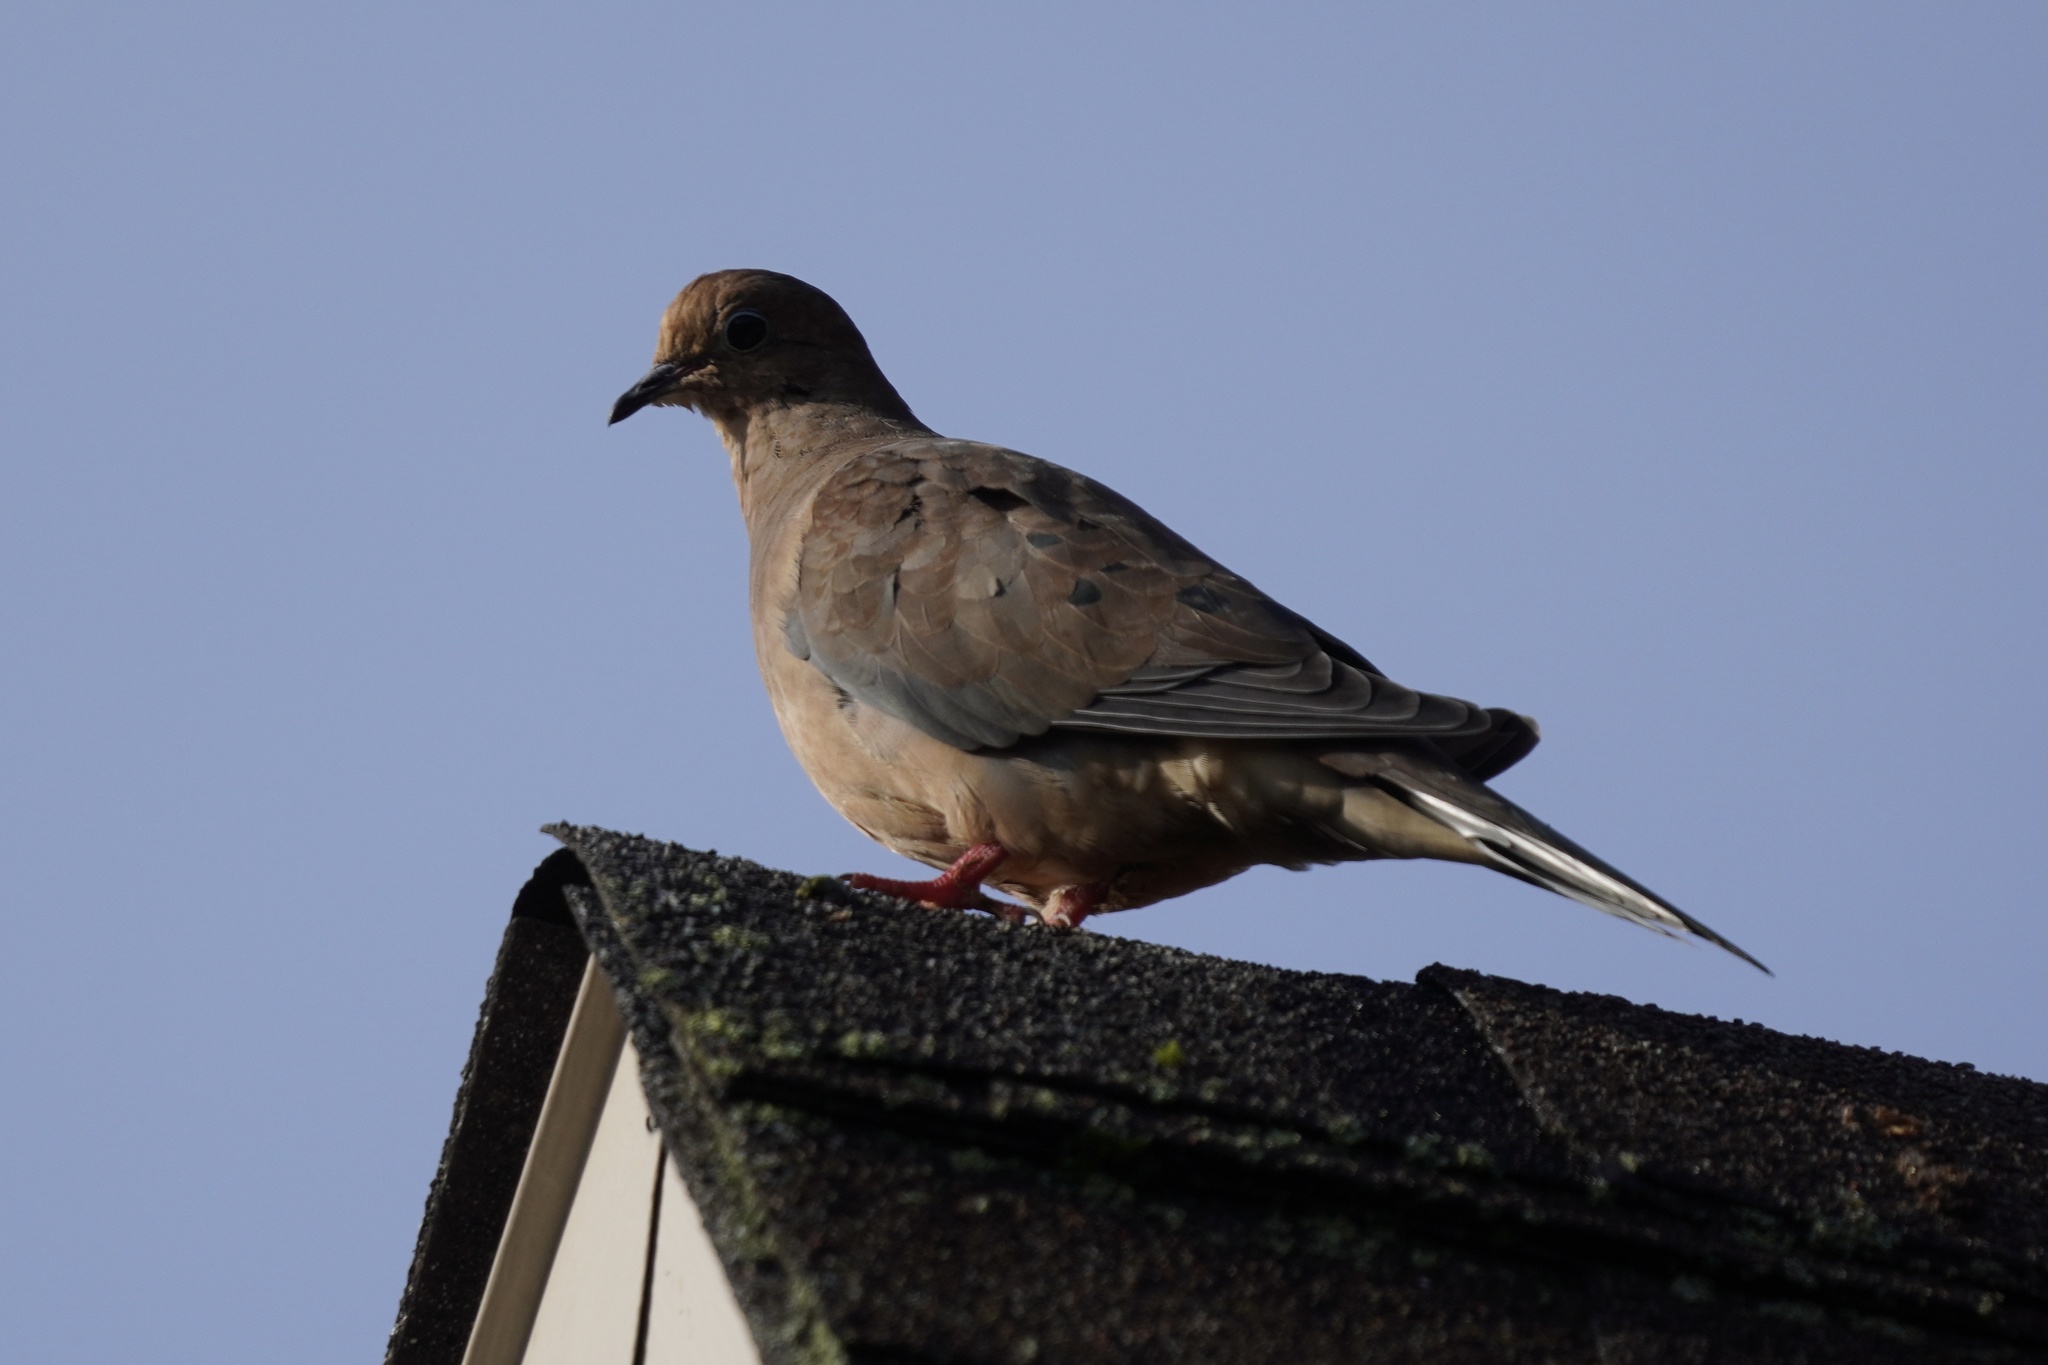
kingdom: Animalia
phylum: Chordata
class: Aves
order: Columbiformes
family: Columbidae
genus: Zenaida
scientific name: Zenaida macroura
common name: Mourning dove
